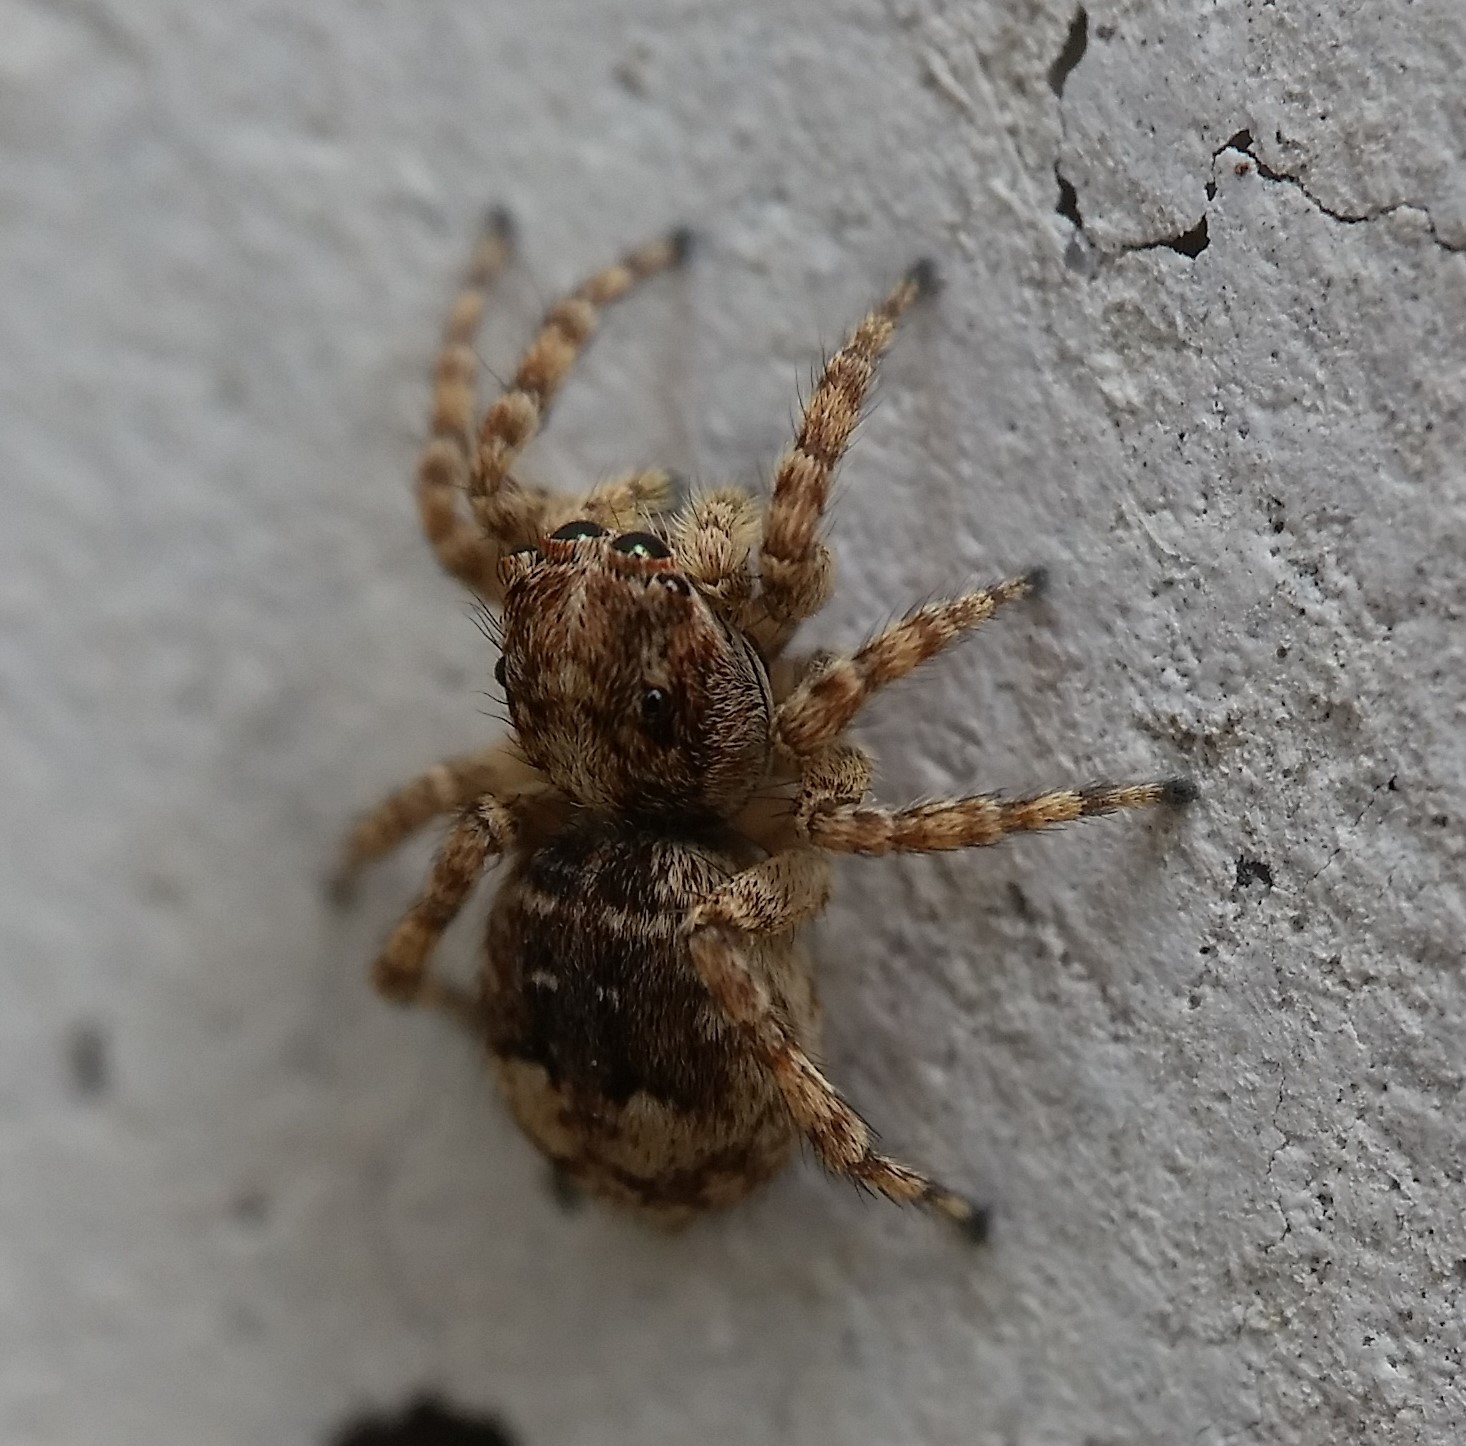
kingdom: Animalia
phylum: Arthropoda
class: Arachnida
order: Araneae
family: Salticidae
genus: Attulus
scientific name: Attulus fasciger
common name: Asiatic wall jumping spider
